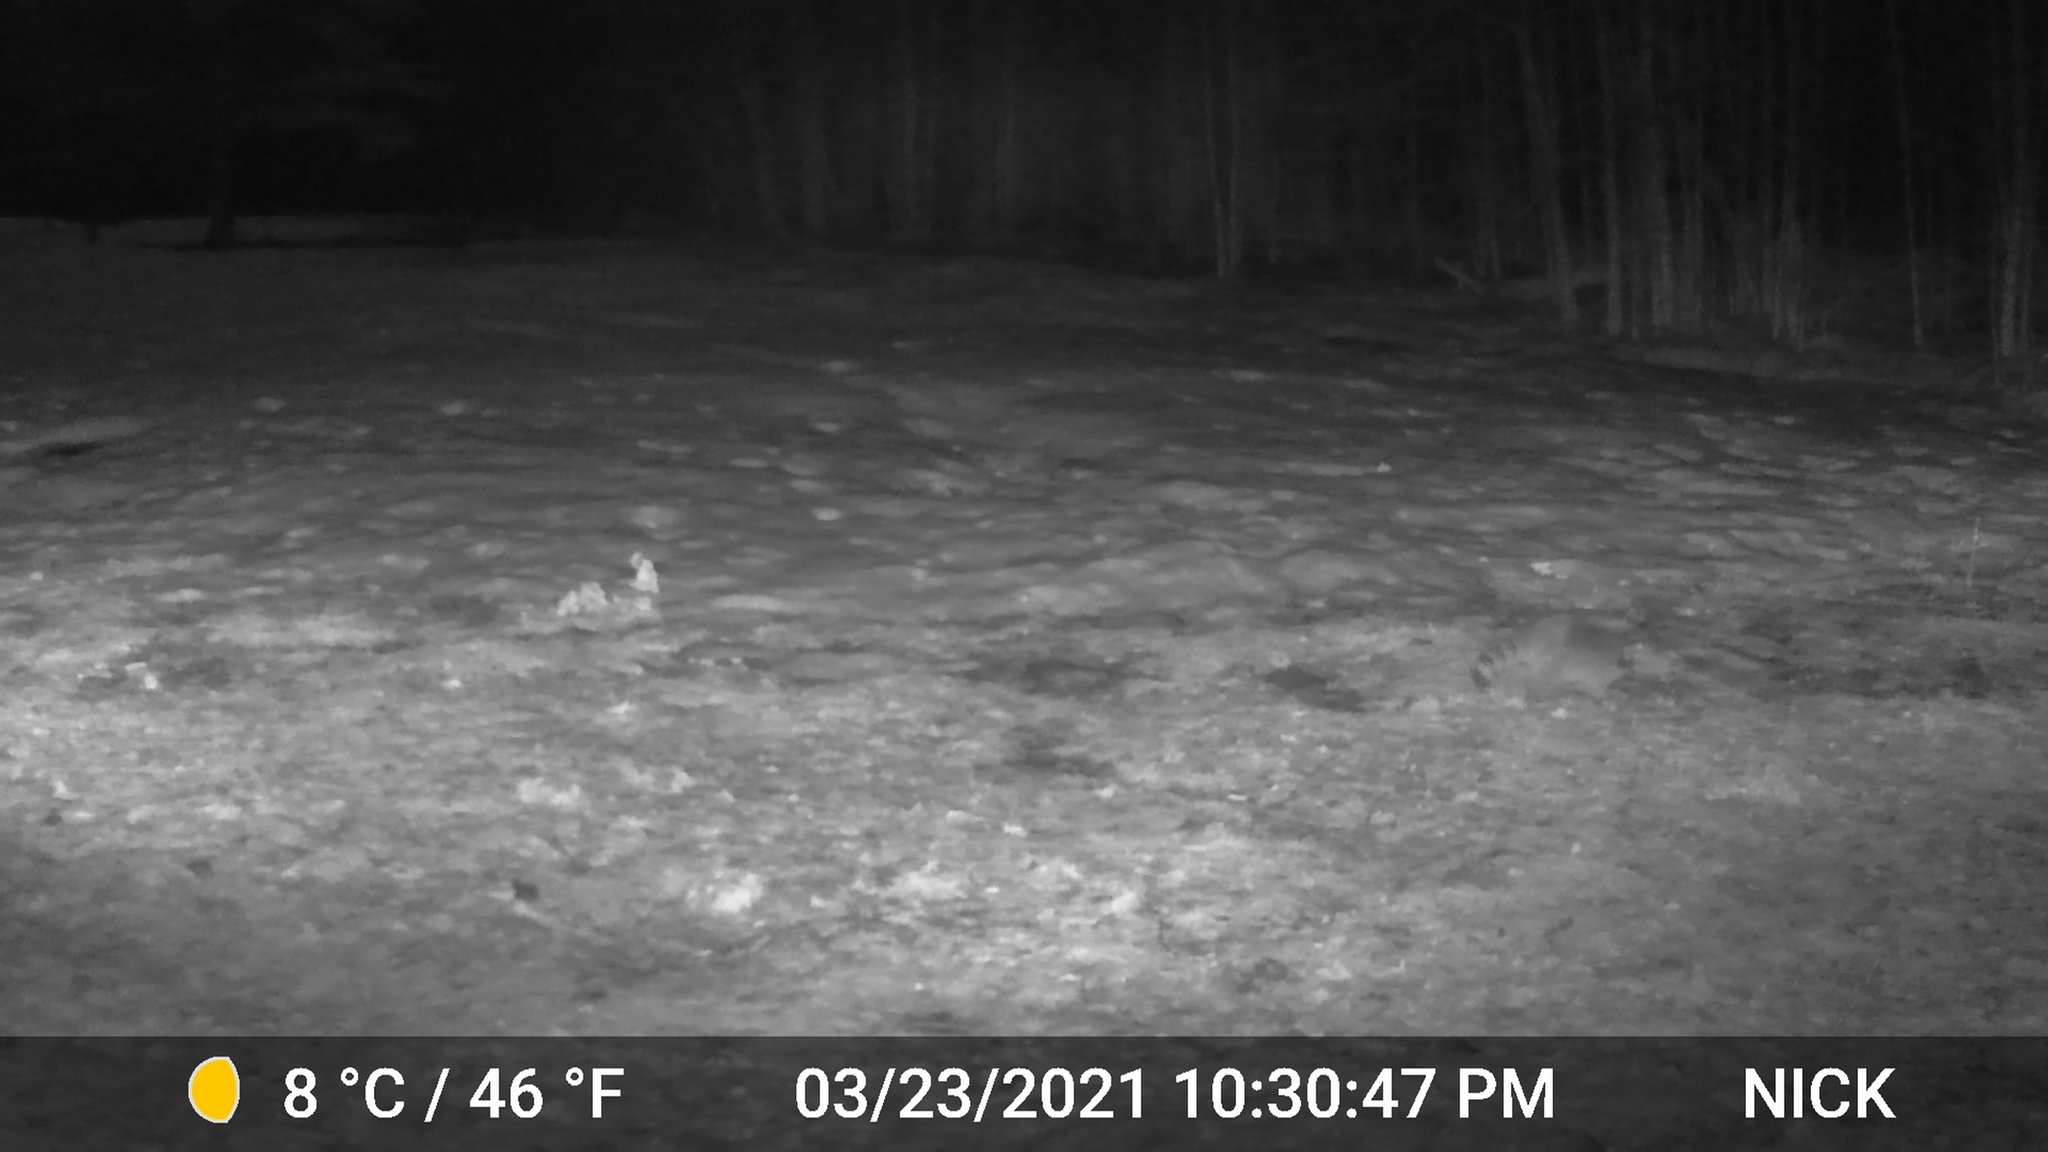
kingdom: Animalia
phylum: Chordata
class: Mammalia
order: Carnivora
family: Procyonidae
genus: Procyon
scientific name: Procyon lotor
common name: Raccoon
